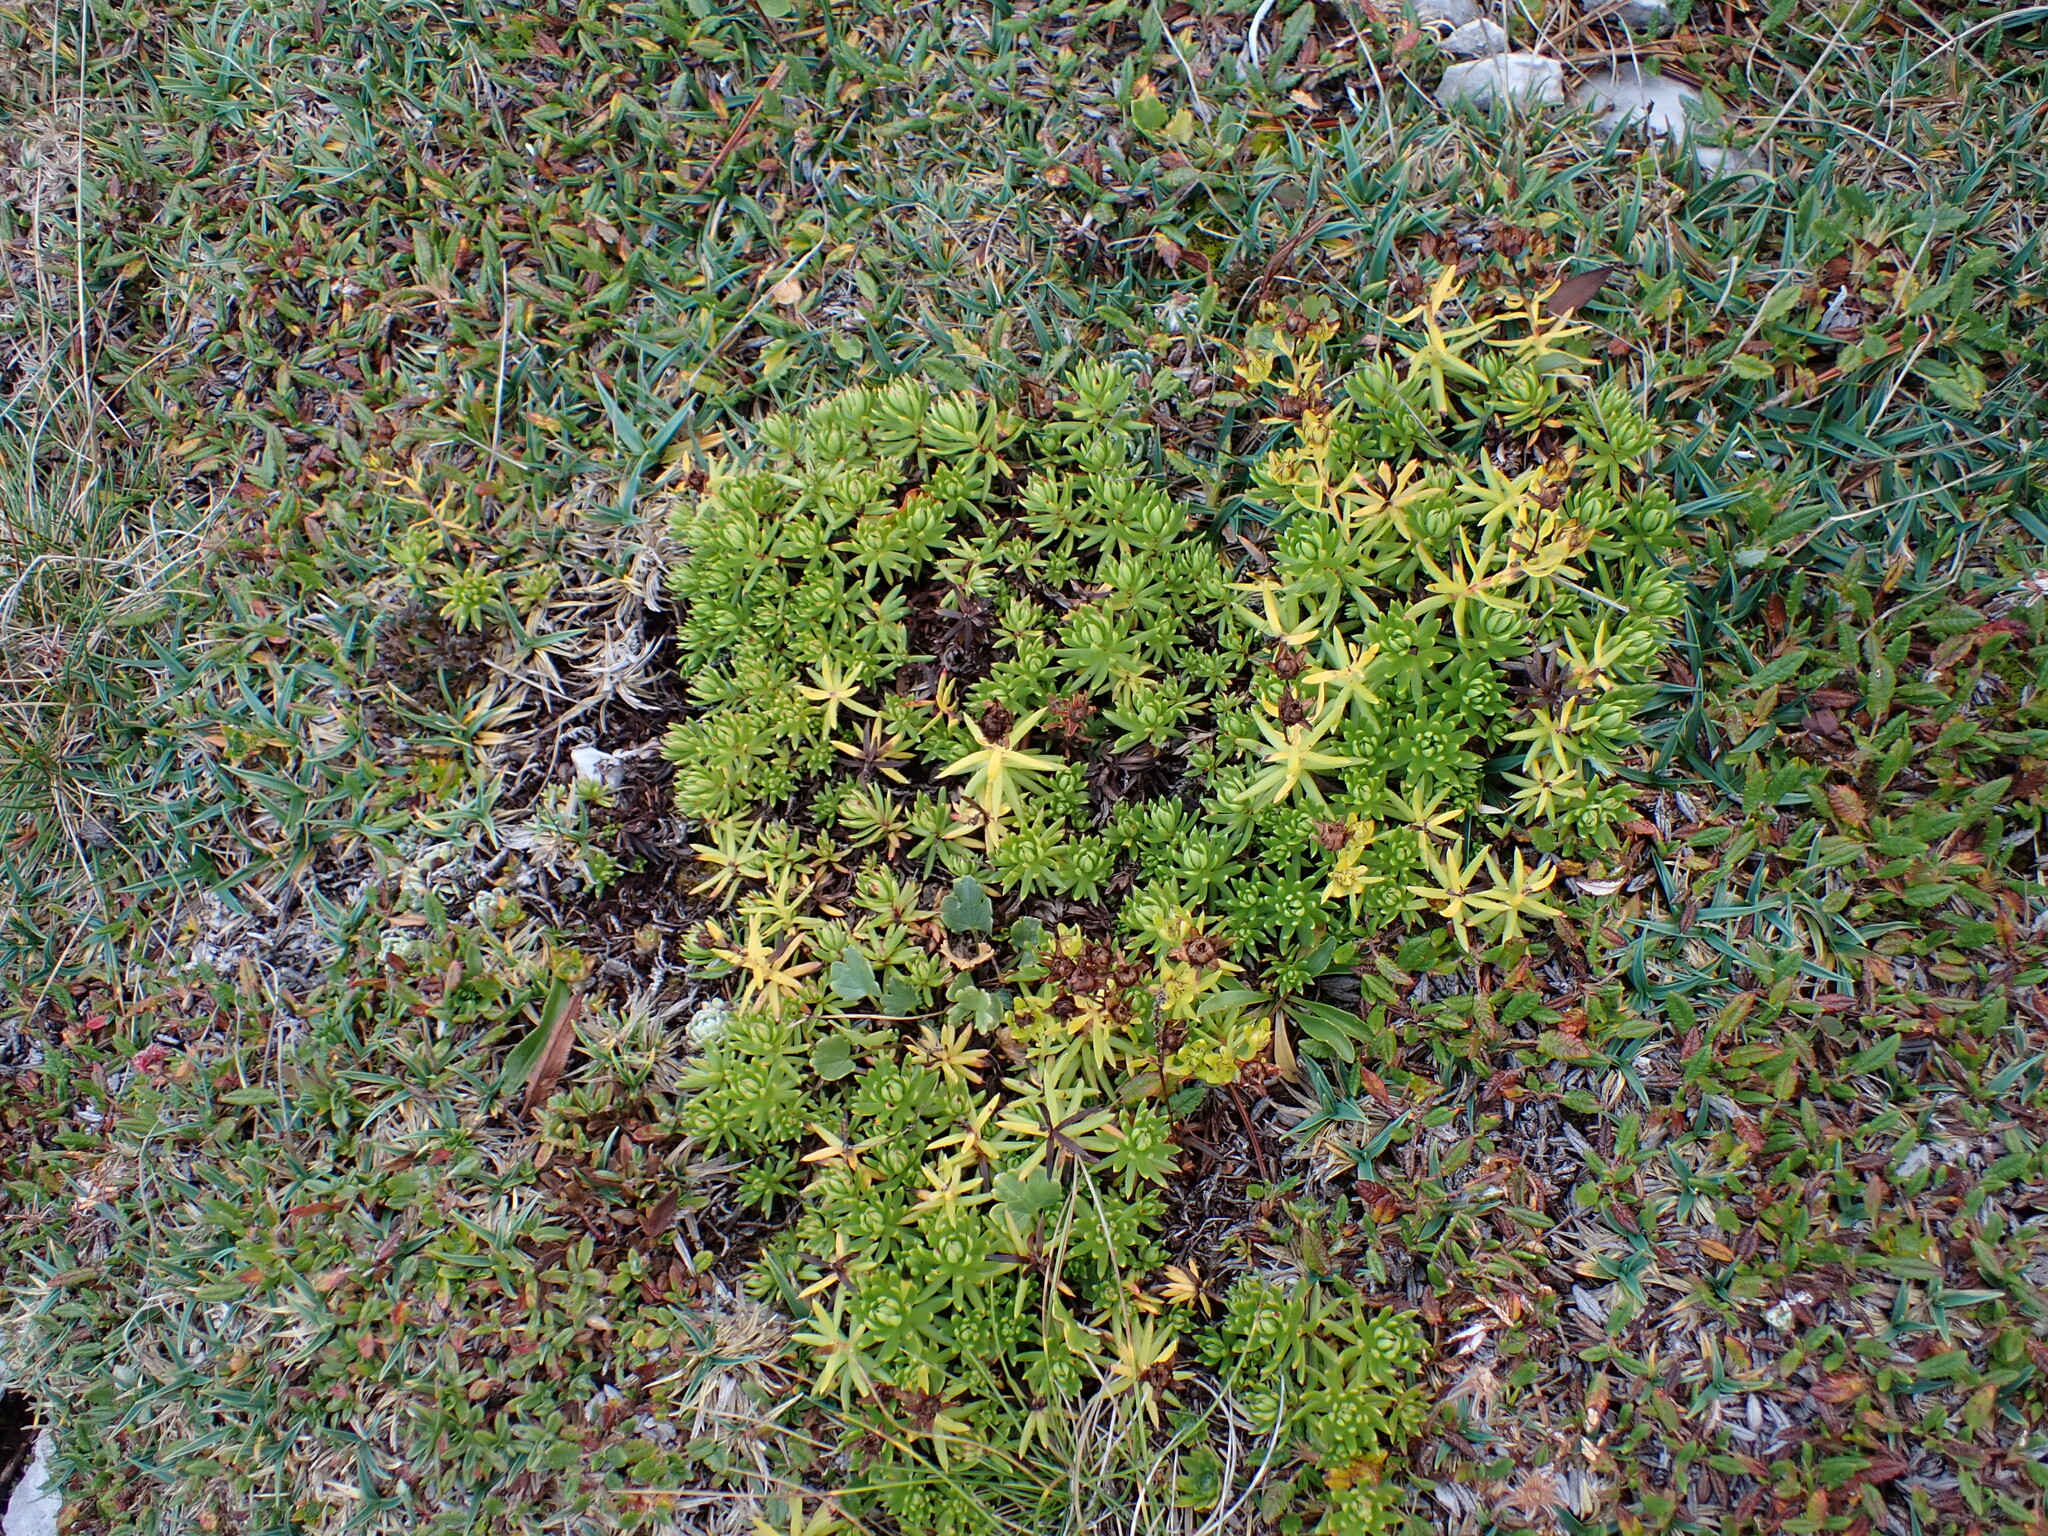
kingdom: Plantae
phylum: Tracheophyta
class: Magnoliopsida
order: Saxifragales
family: Saxifragaceae
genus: Saxifraga
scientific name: Saxifraga aizoides
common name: Yellow mountain saxifrage
